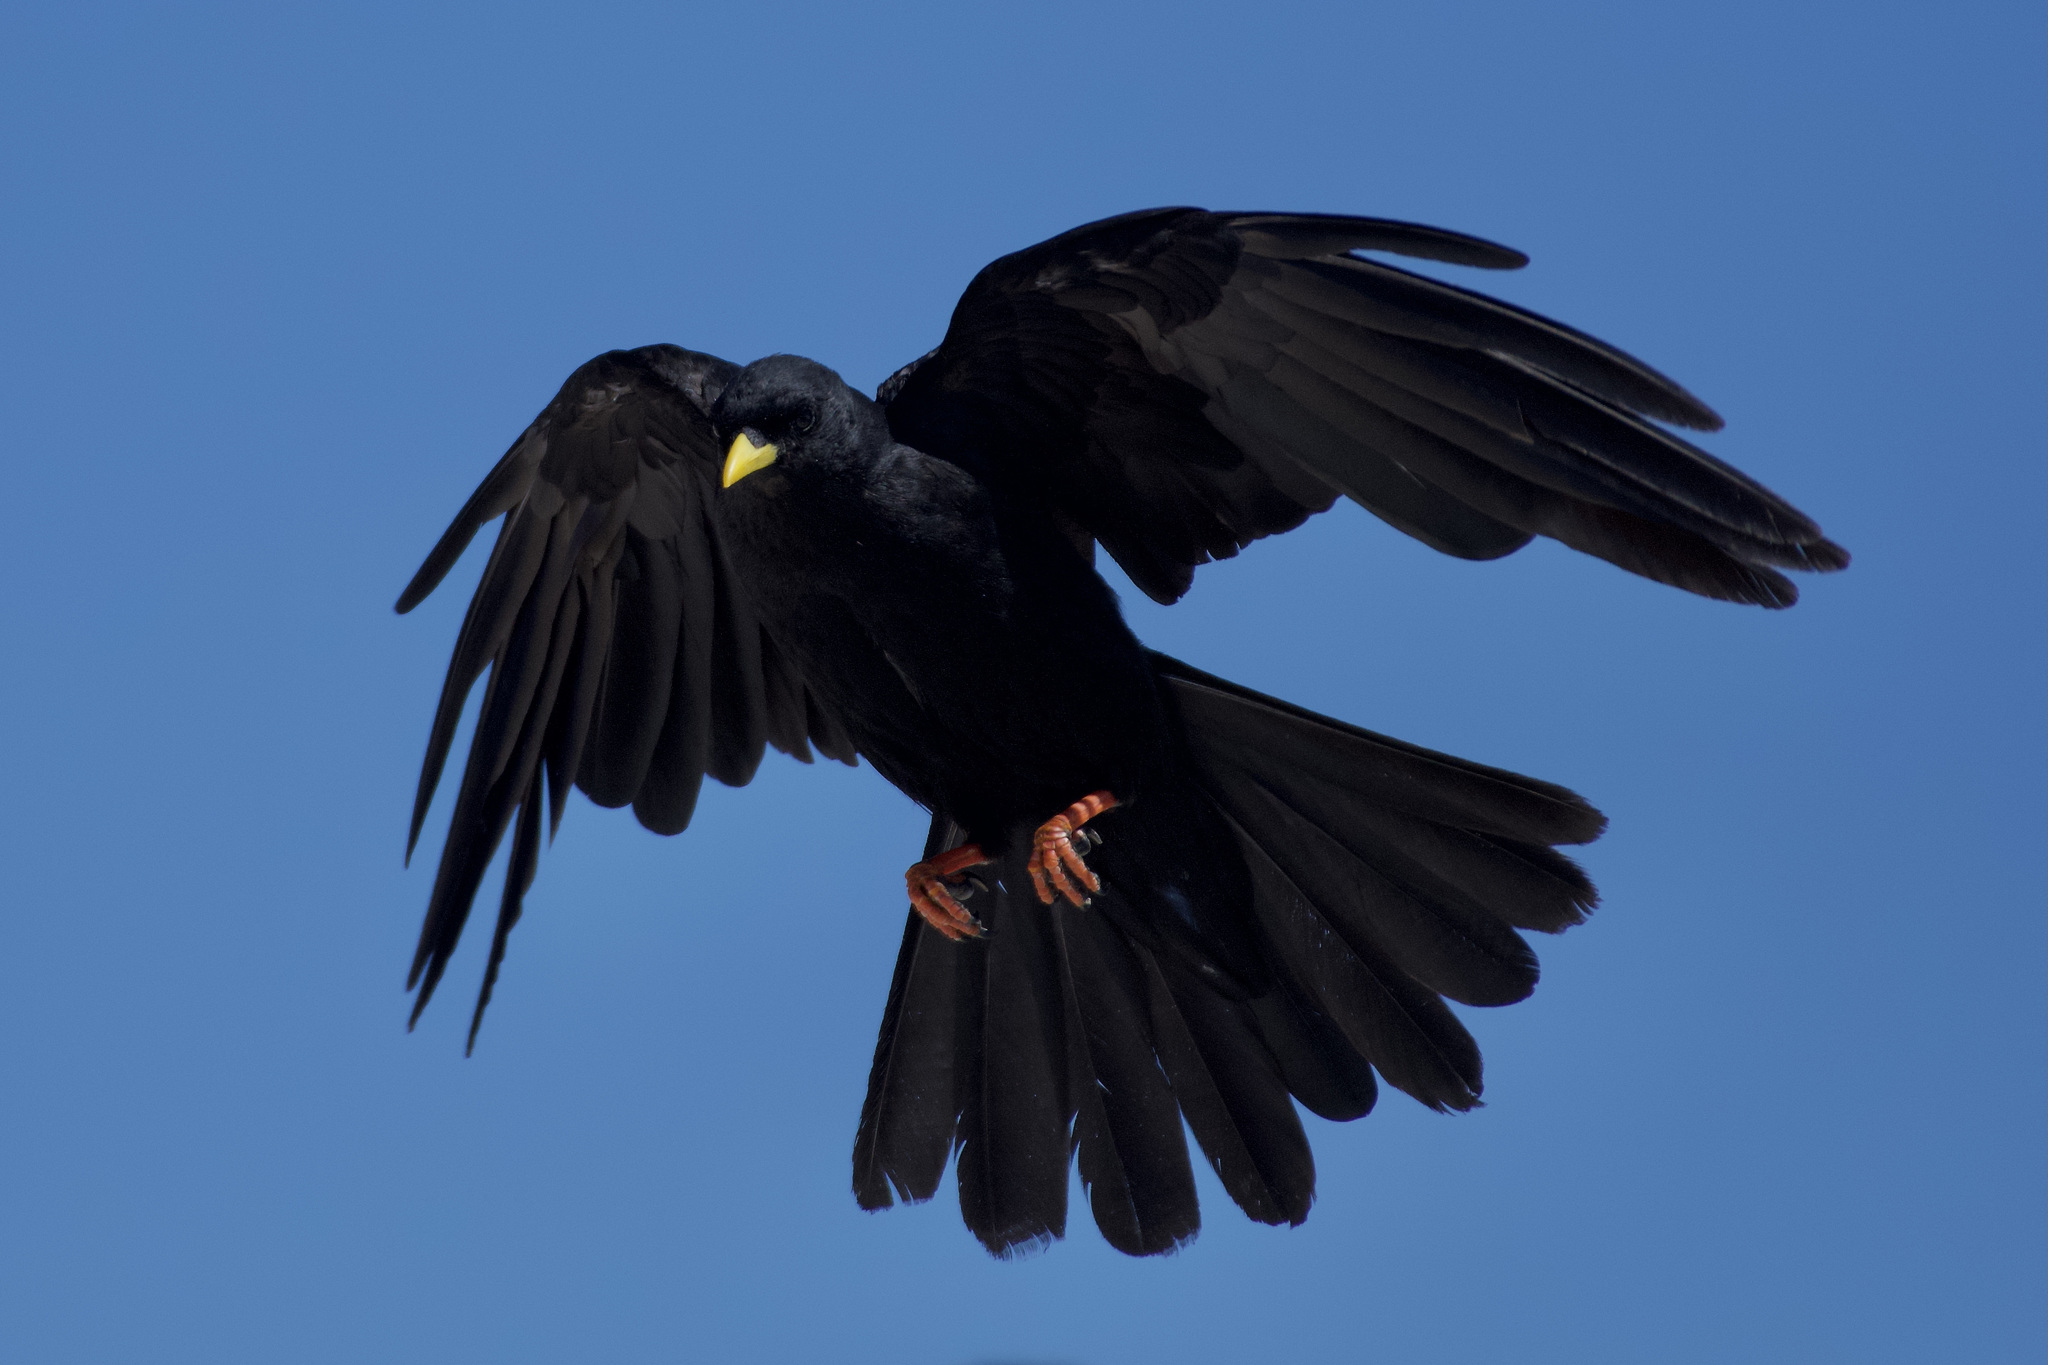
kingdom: Animalia
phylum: Chordata
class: Aves
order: Passeriformes
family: Corvidae
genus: Pyrrhocorax
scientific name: Pyrrhocorax graculus
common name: Alpine chough
